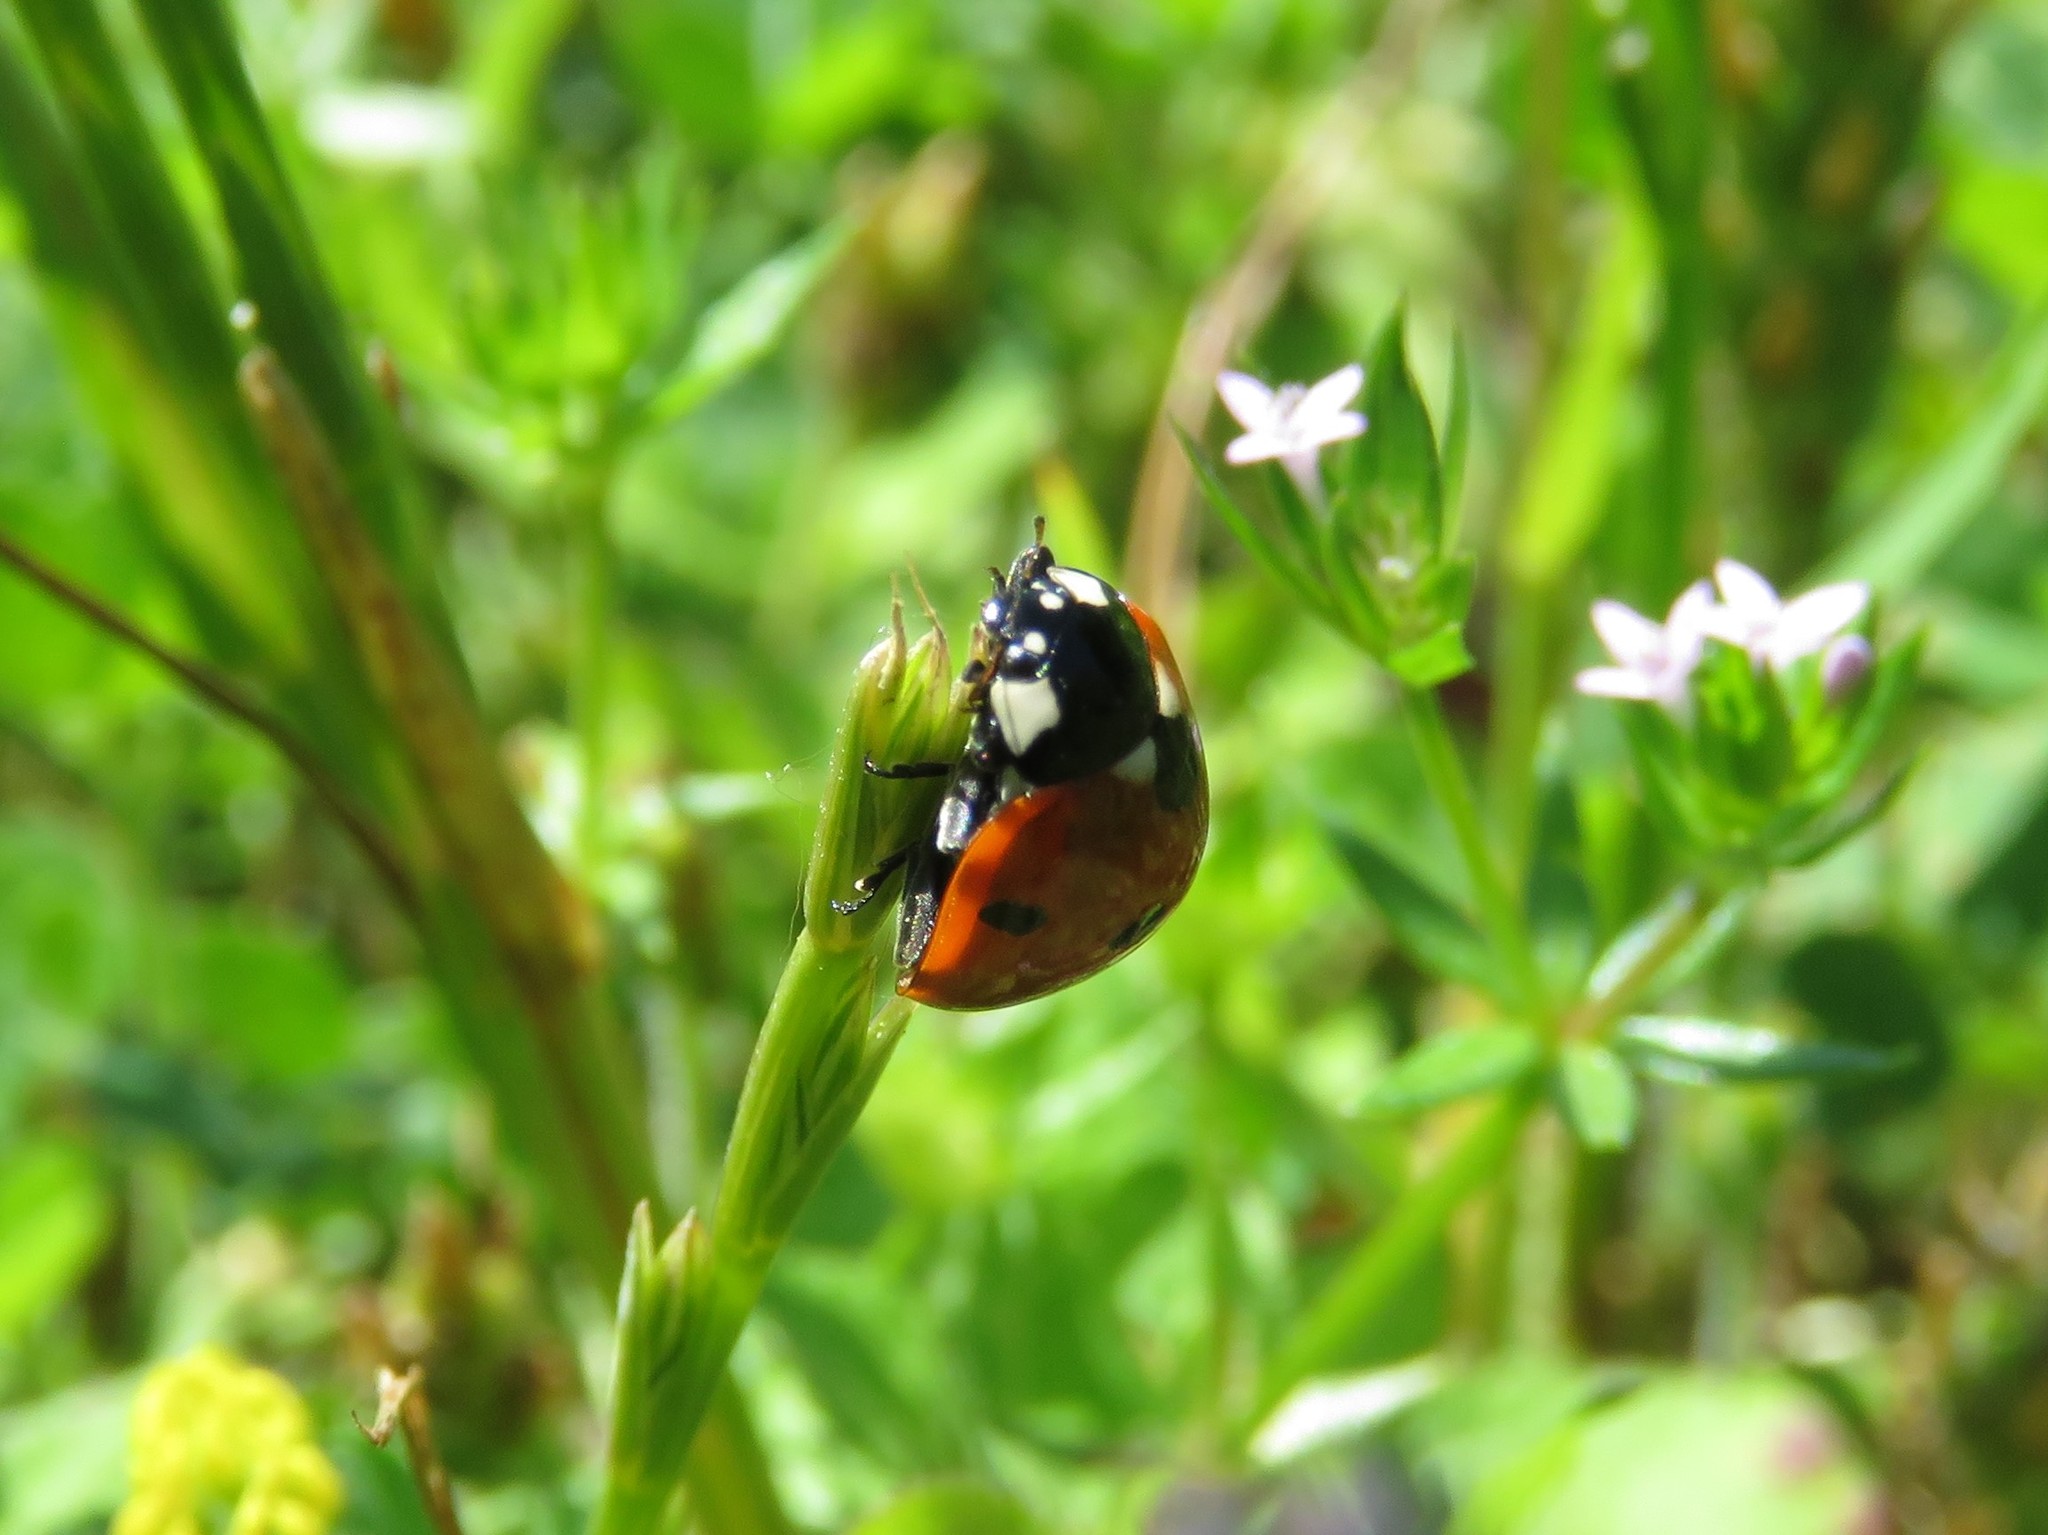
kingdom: Animalia
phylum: Arthropoda
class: Insecta
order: Coleoptera
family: Coccinellidae
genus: Coccinella
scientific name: Coccinella septempunctata
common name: Sevenspotted lady beetle
